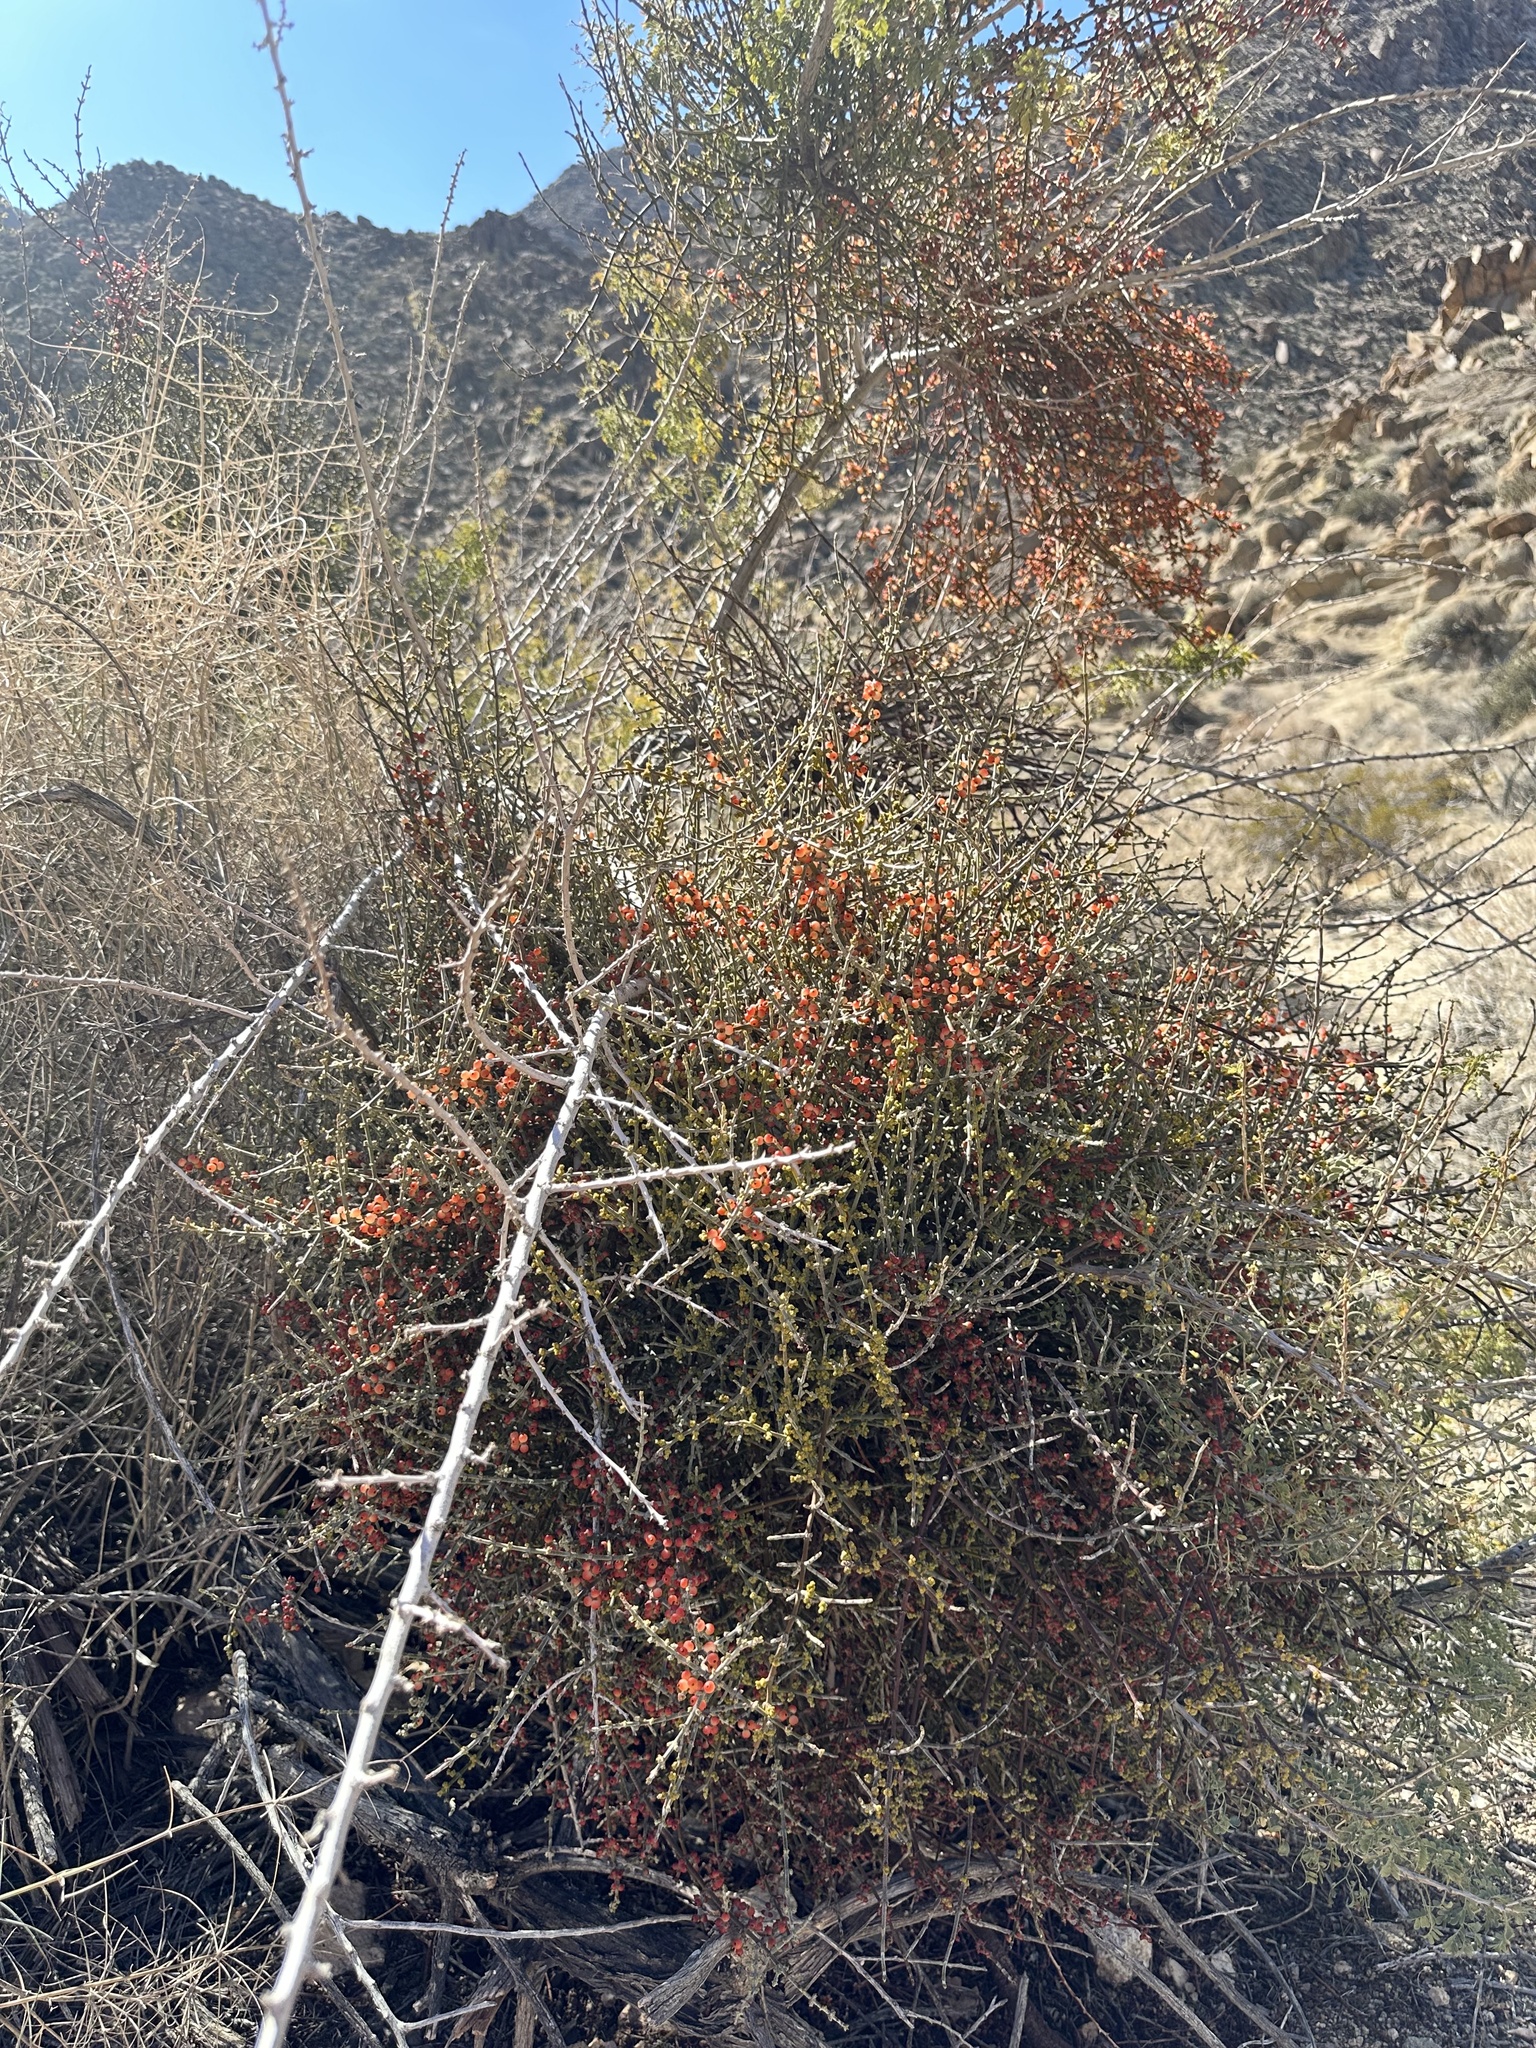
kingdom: Plantae
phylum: Tracheophyta
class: Magnoliopsida
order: Santalales
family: Viscaceae
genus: Phoradendron
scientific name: Phoradendron californicum
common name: Acacia mistletoe
